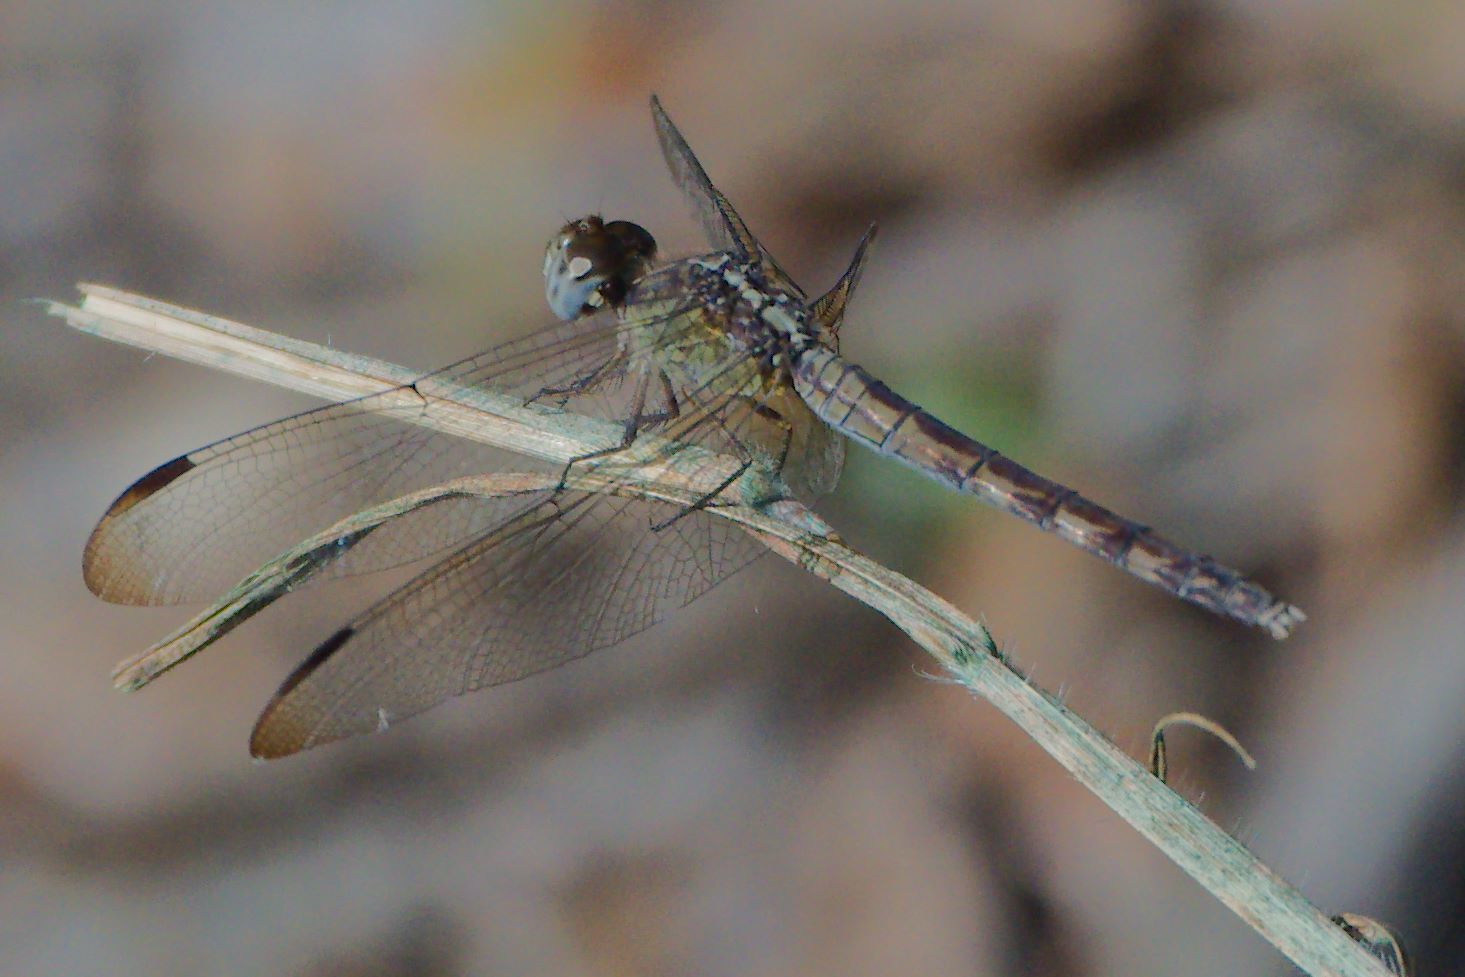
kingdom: Animalia
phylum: Arthropoda
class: Insecta
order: Odonata
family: Libellulidae
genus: Erythrodiplax
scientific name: Erythrodiplax umbrata
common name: Band-winged dragonlet
